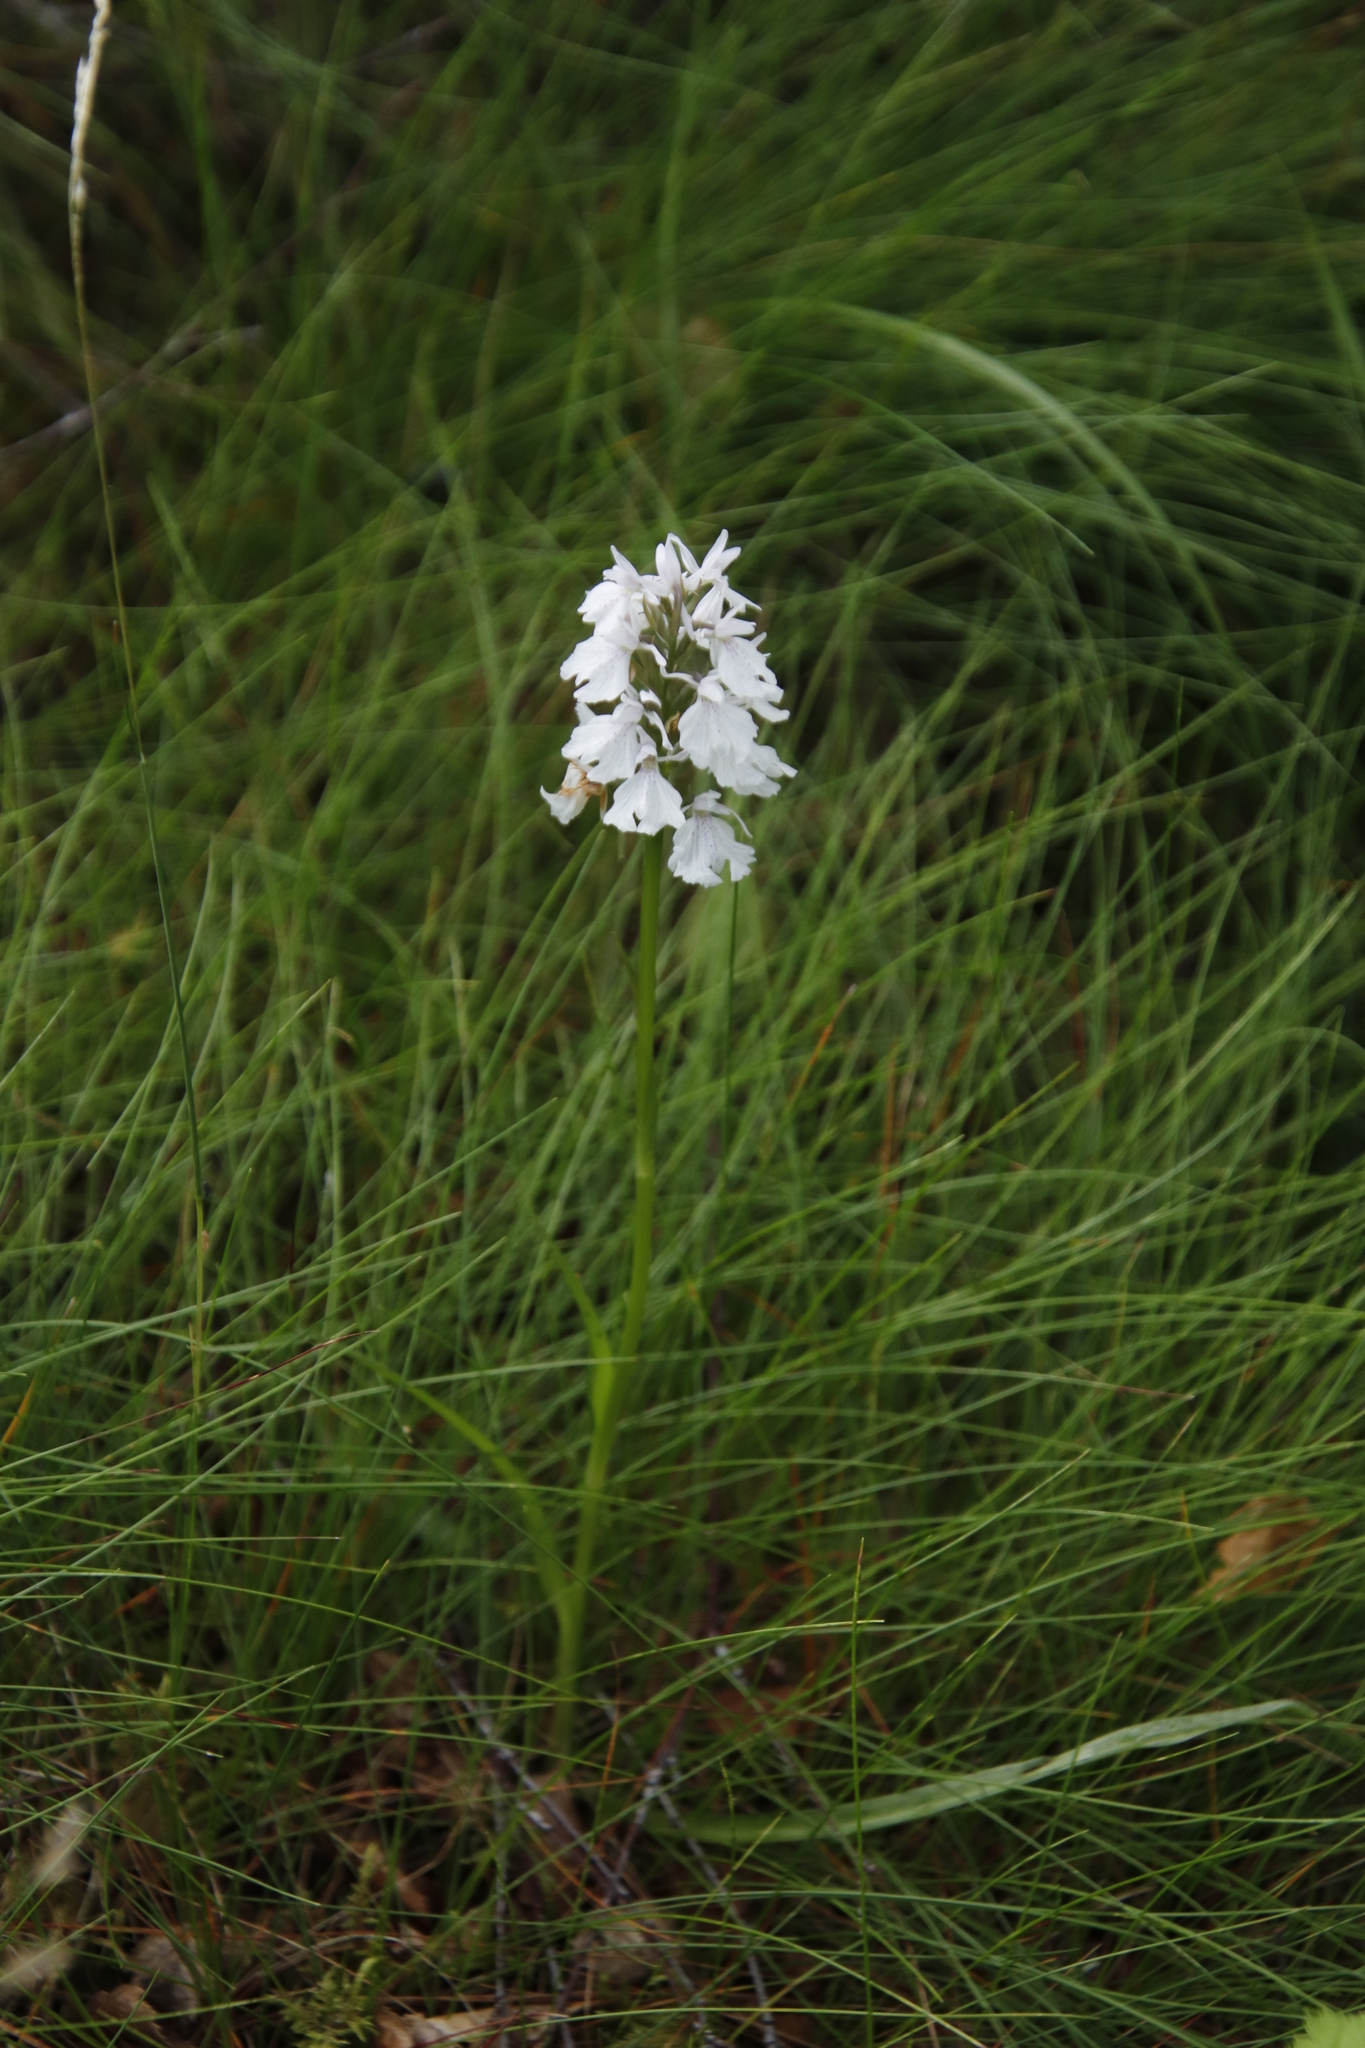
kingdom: Plantae
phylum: Tracheophyta
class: Liliopsida
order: Asparagales
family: Orchidaceae
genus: Dactylorhiza
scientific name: Dactylorhiza maculata
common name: Heath spotted-orchid
